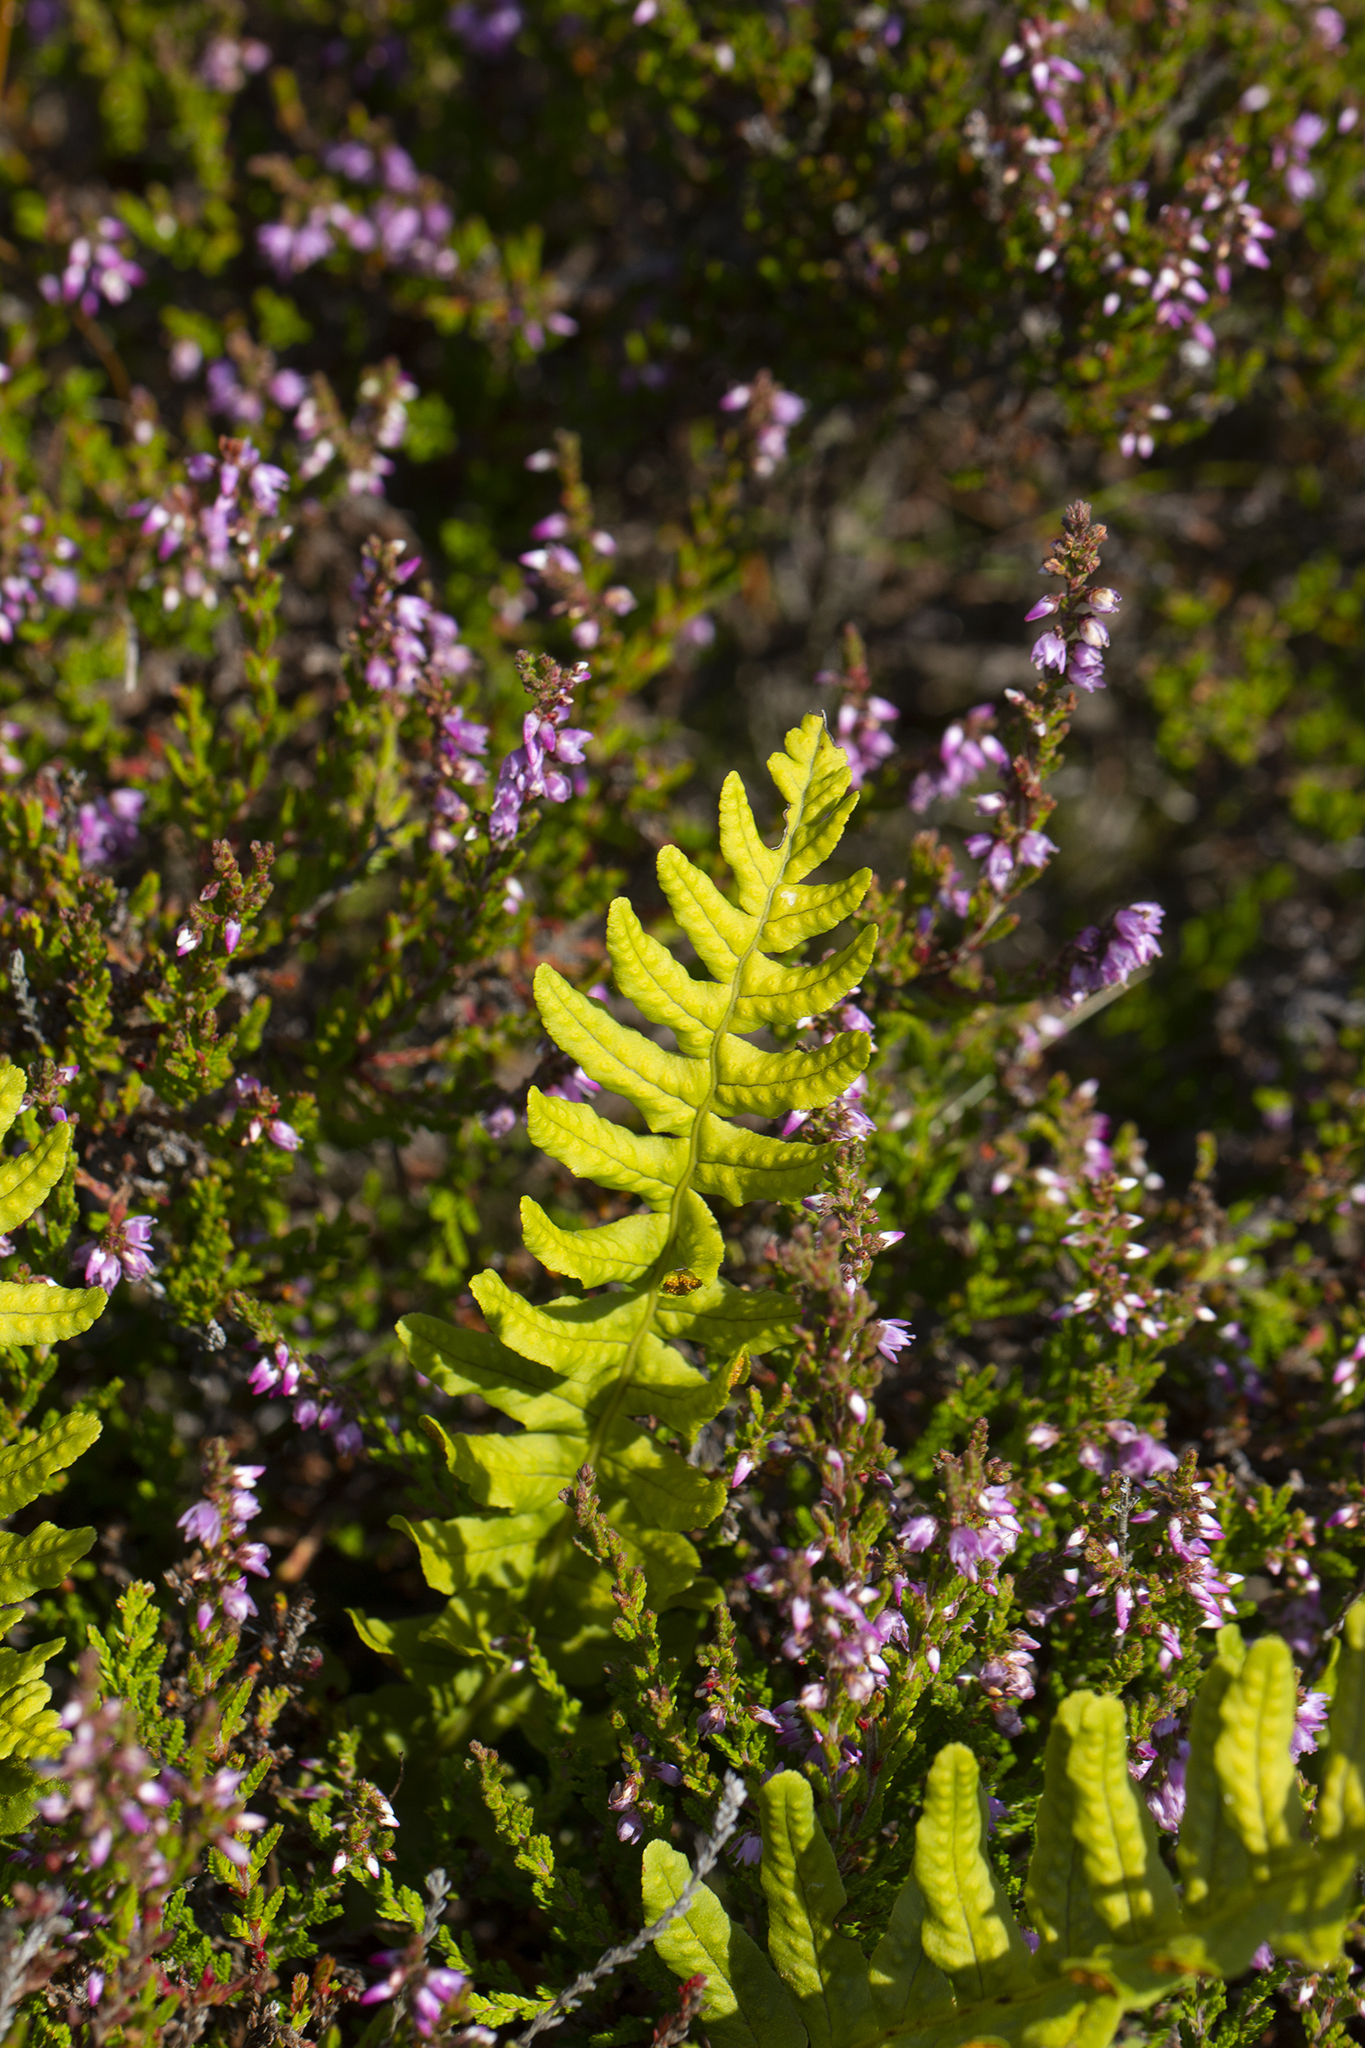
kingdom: Plantae
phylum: Tracheophyta
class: Polypodiopsida
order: Polypodiales
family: Polypodiaceae
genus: Polypodium
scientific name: Polypodium vulgare
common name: Common polypody
